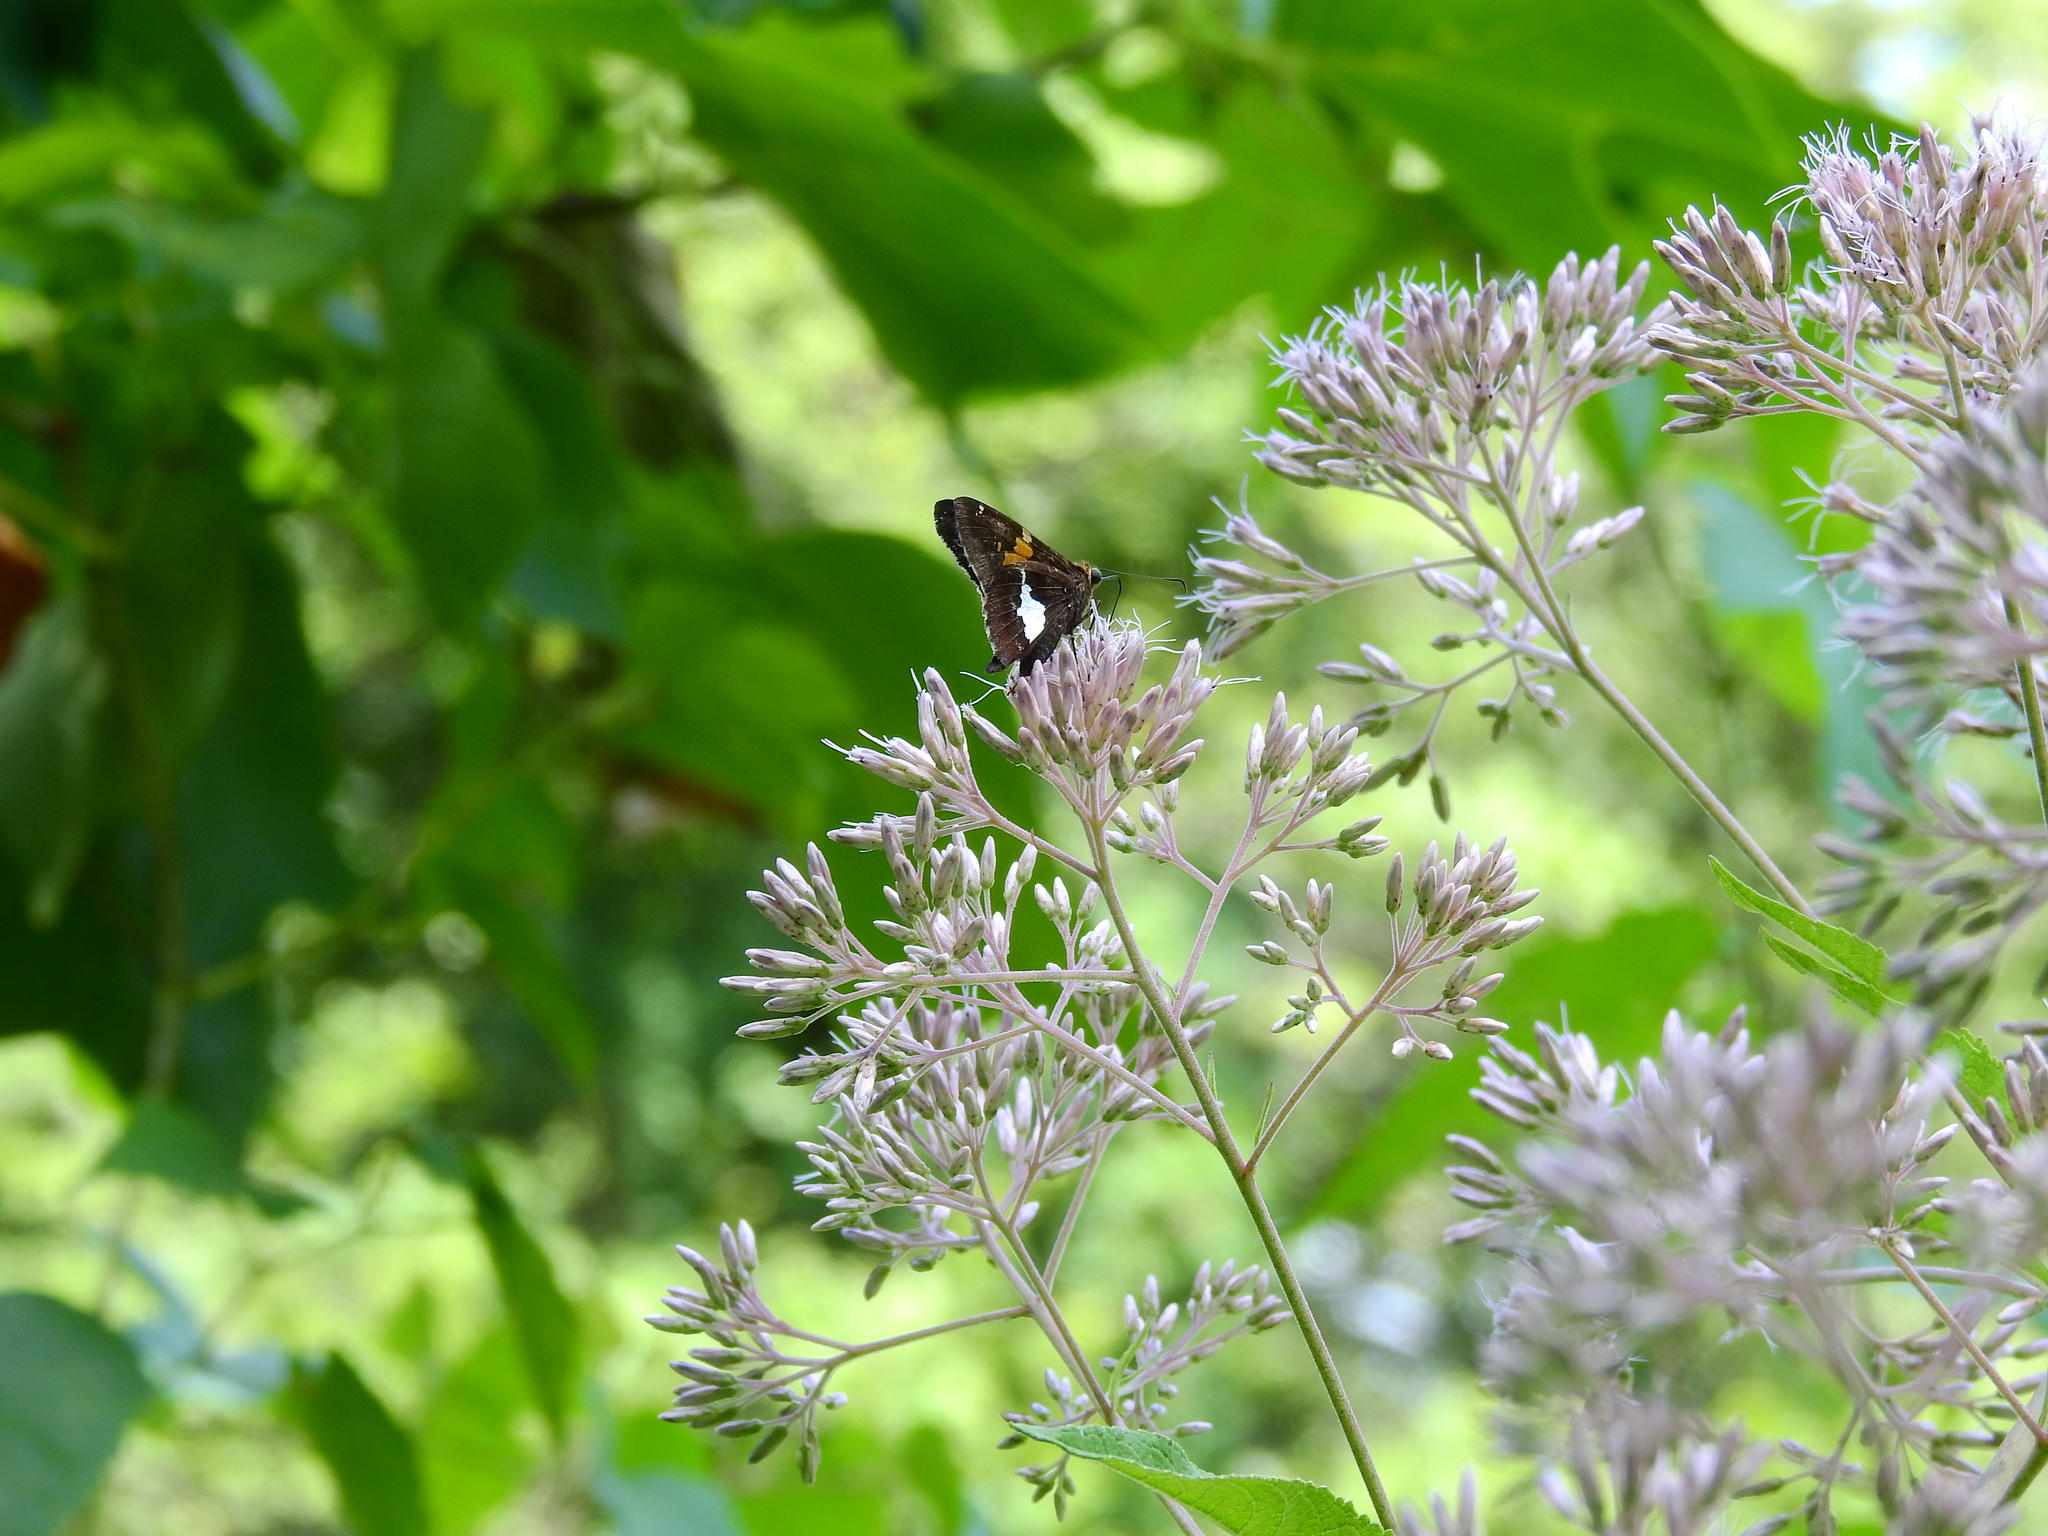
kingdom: Animalia
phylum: Arthropoda
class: Insecta
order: Lepidoptera
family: Hesperiidae
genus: Epargyreus
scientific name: Epargyreus clarus
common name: Silver-spotted skipper
